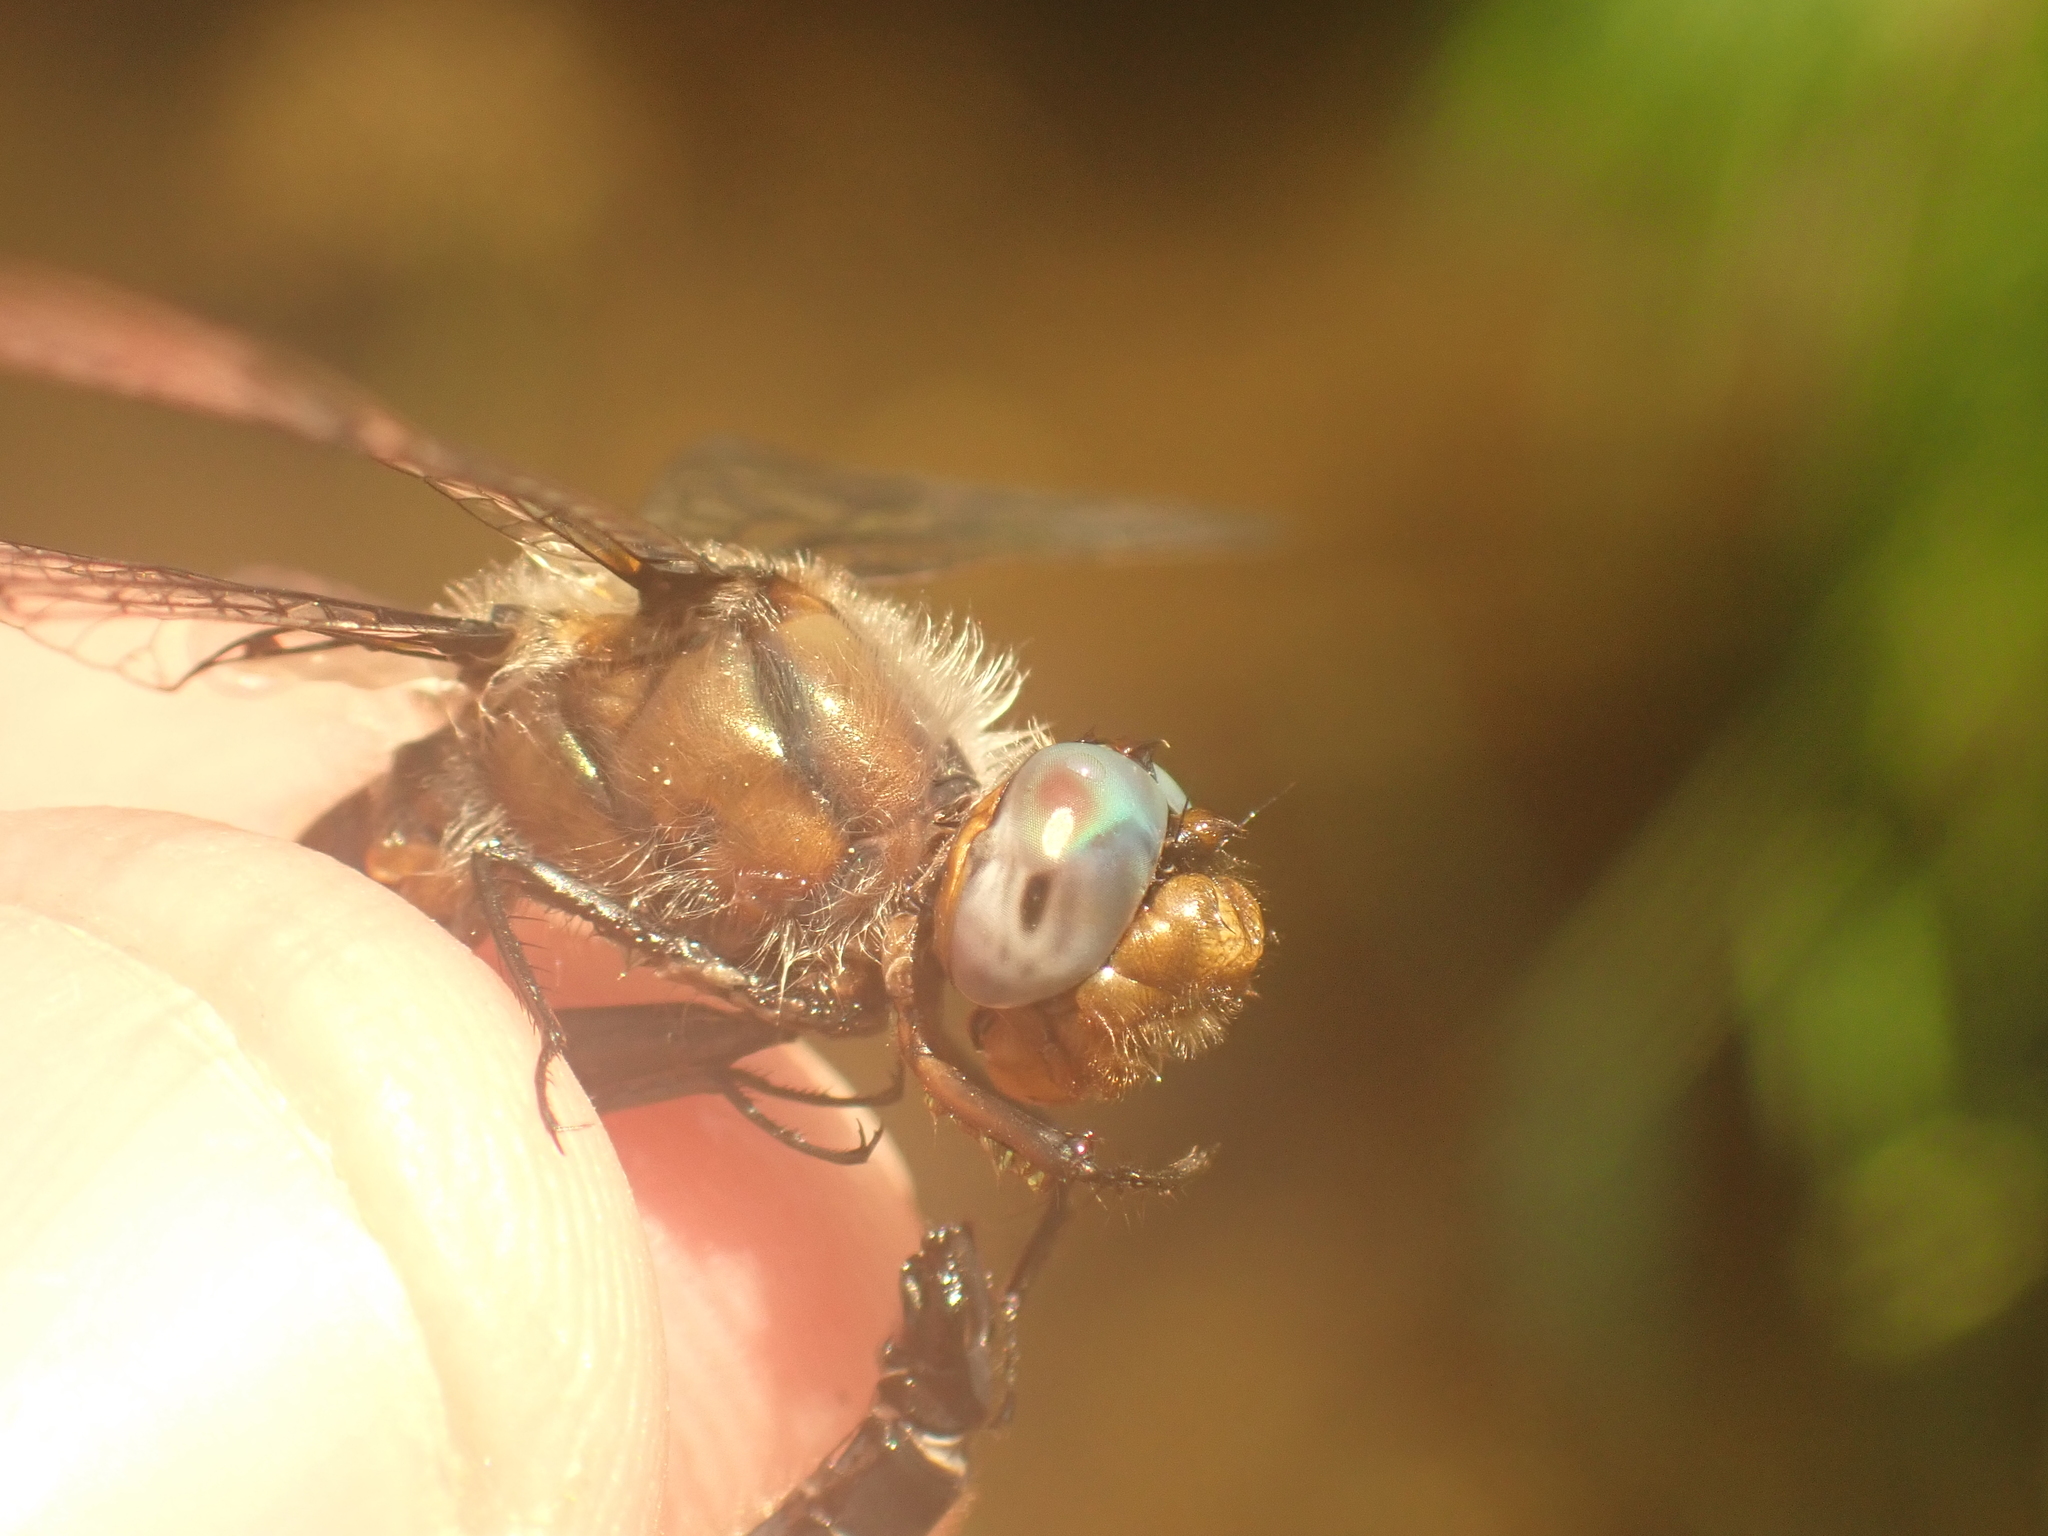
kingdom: Animalia
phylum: Arthropoda
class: Insecta
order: Odonata
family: Corduliidae
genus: Helocordulia
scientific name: Helocordulia uhleri
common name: Uhler's sundragon
